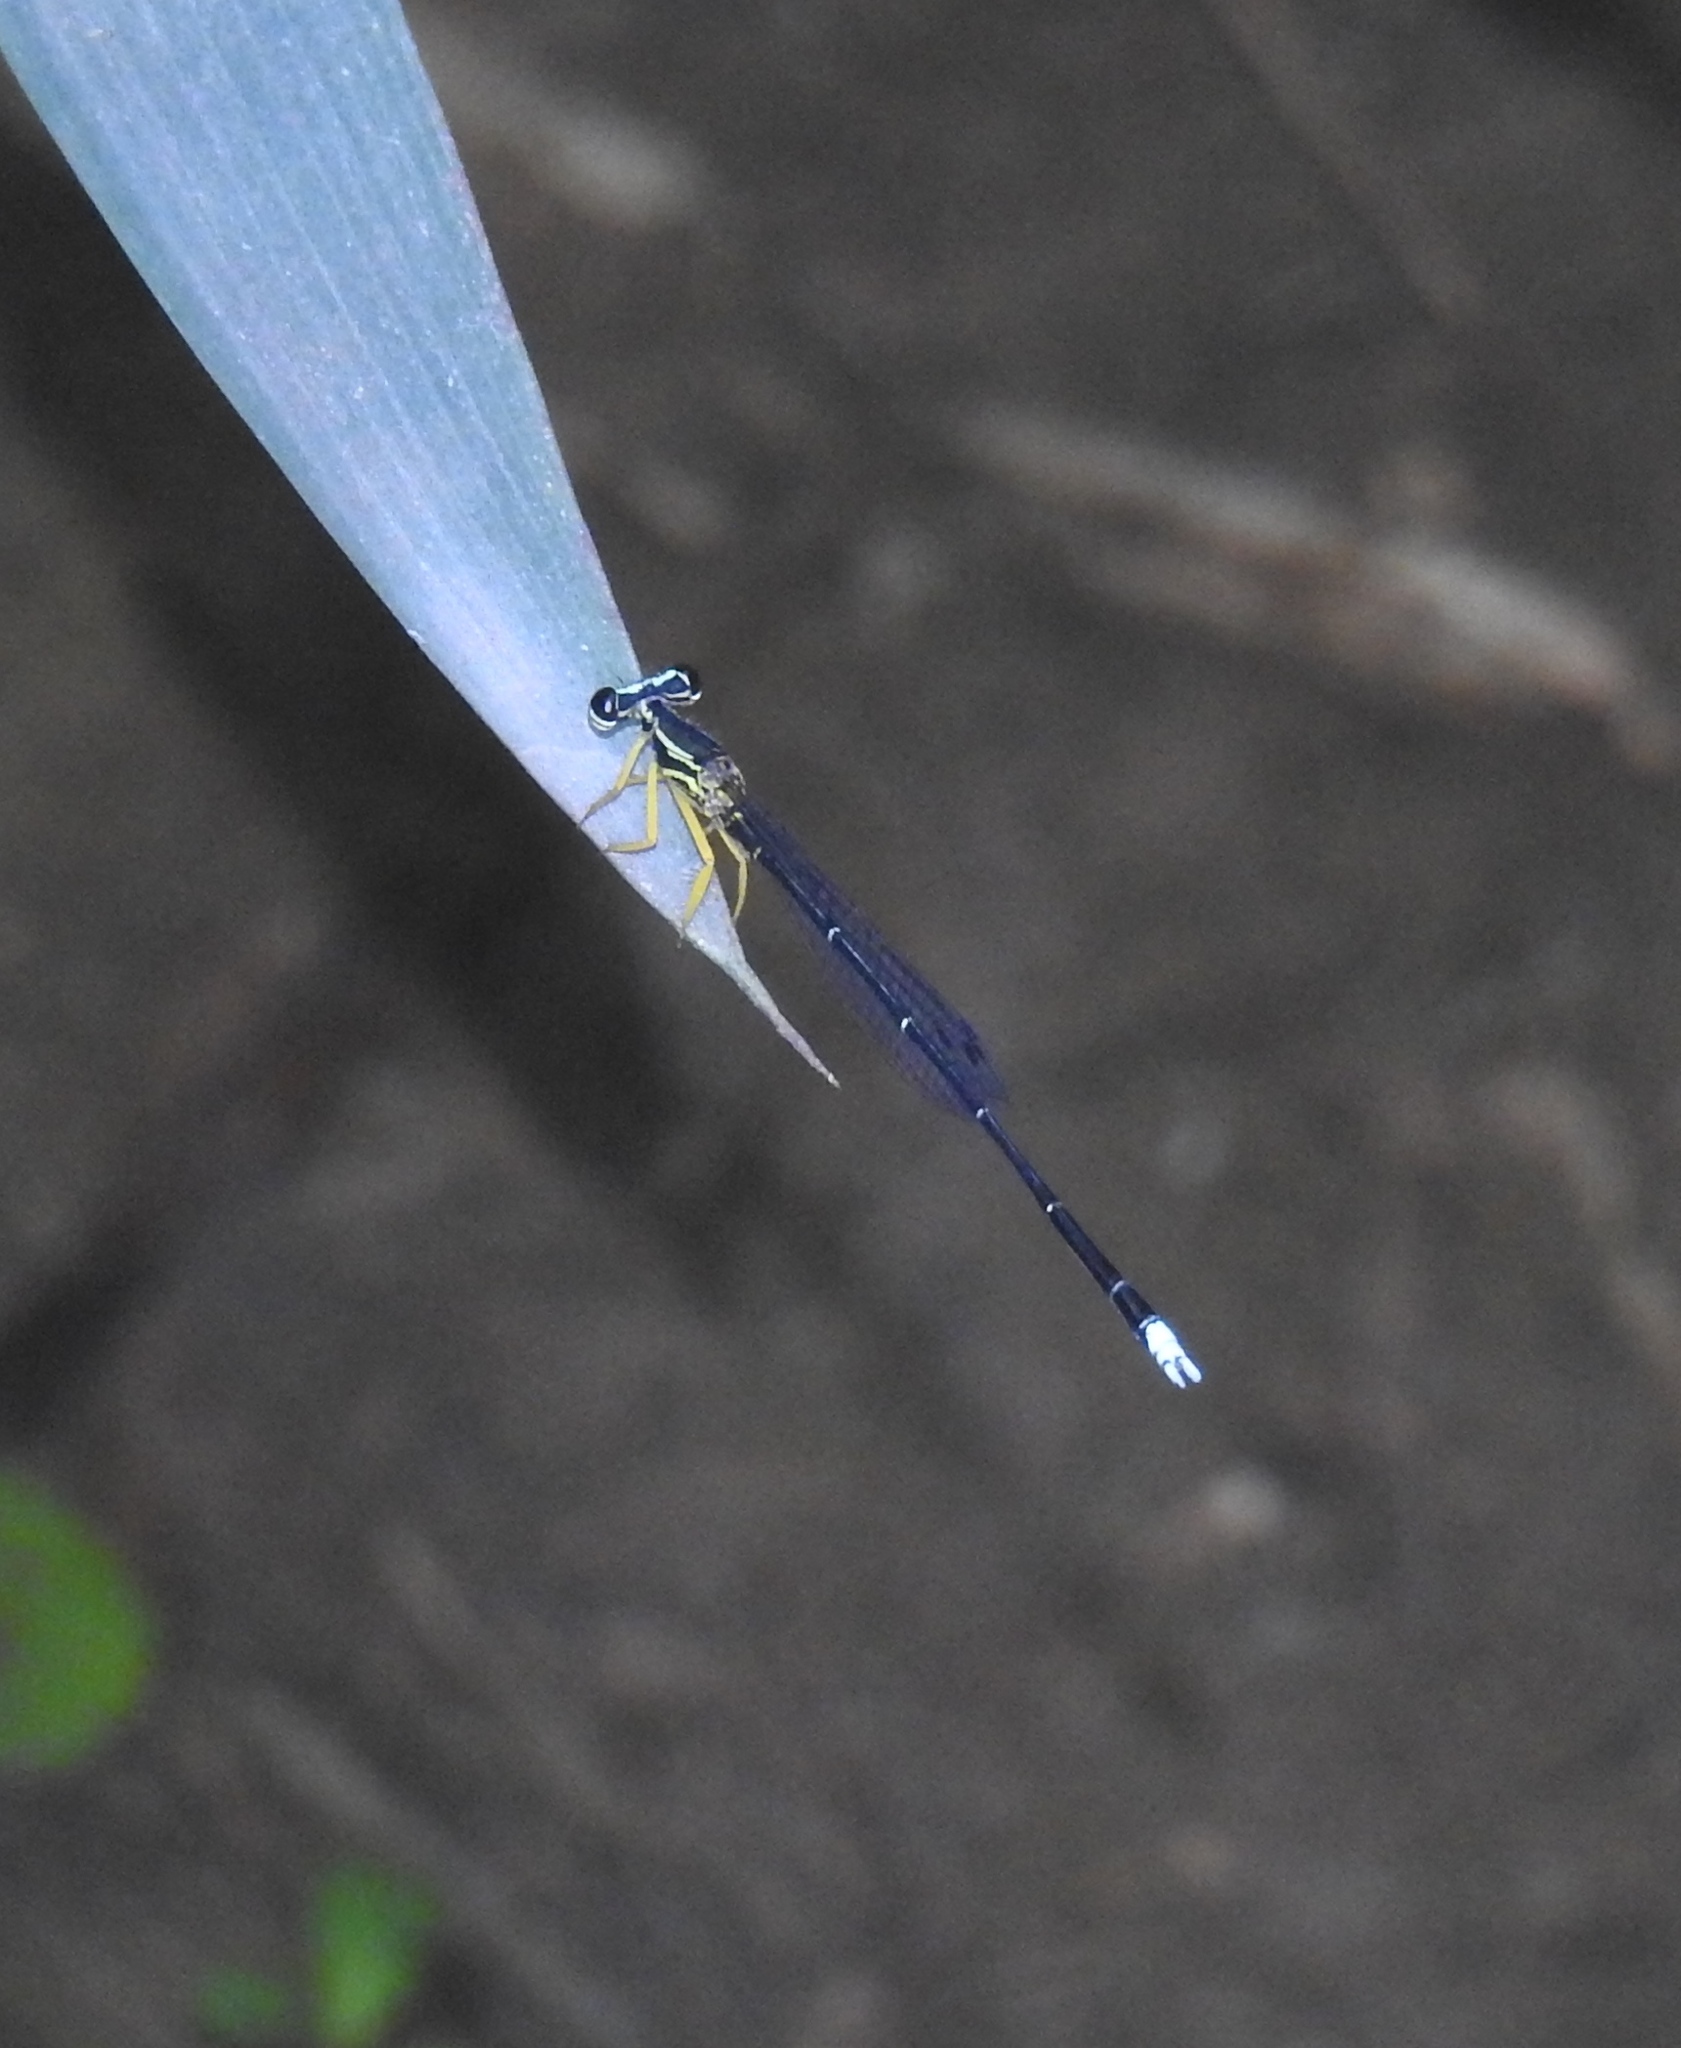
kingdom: Animalia
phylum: Arthropoda
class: Insecta
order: Odonata
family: Platycnemididae
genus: Copera
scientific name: Copera marginipes
